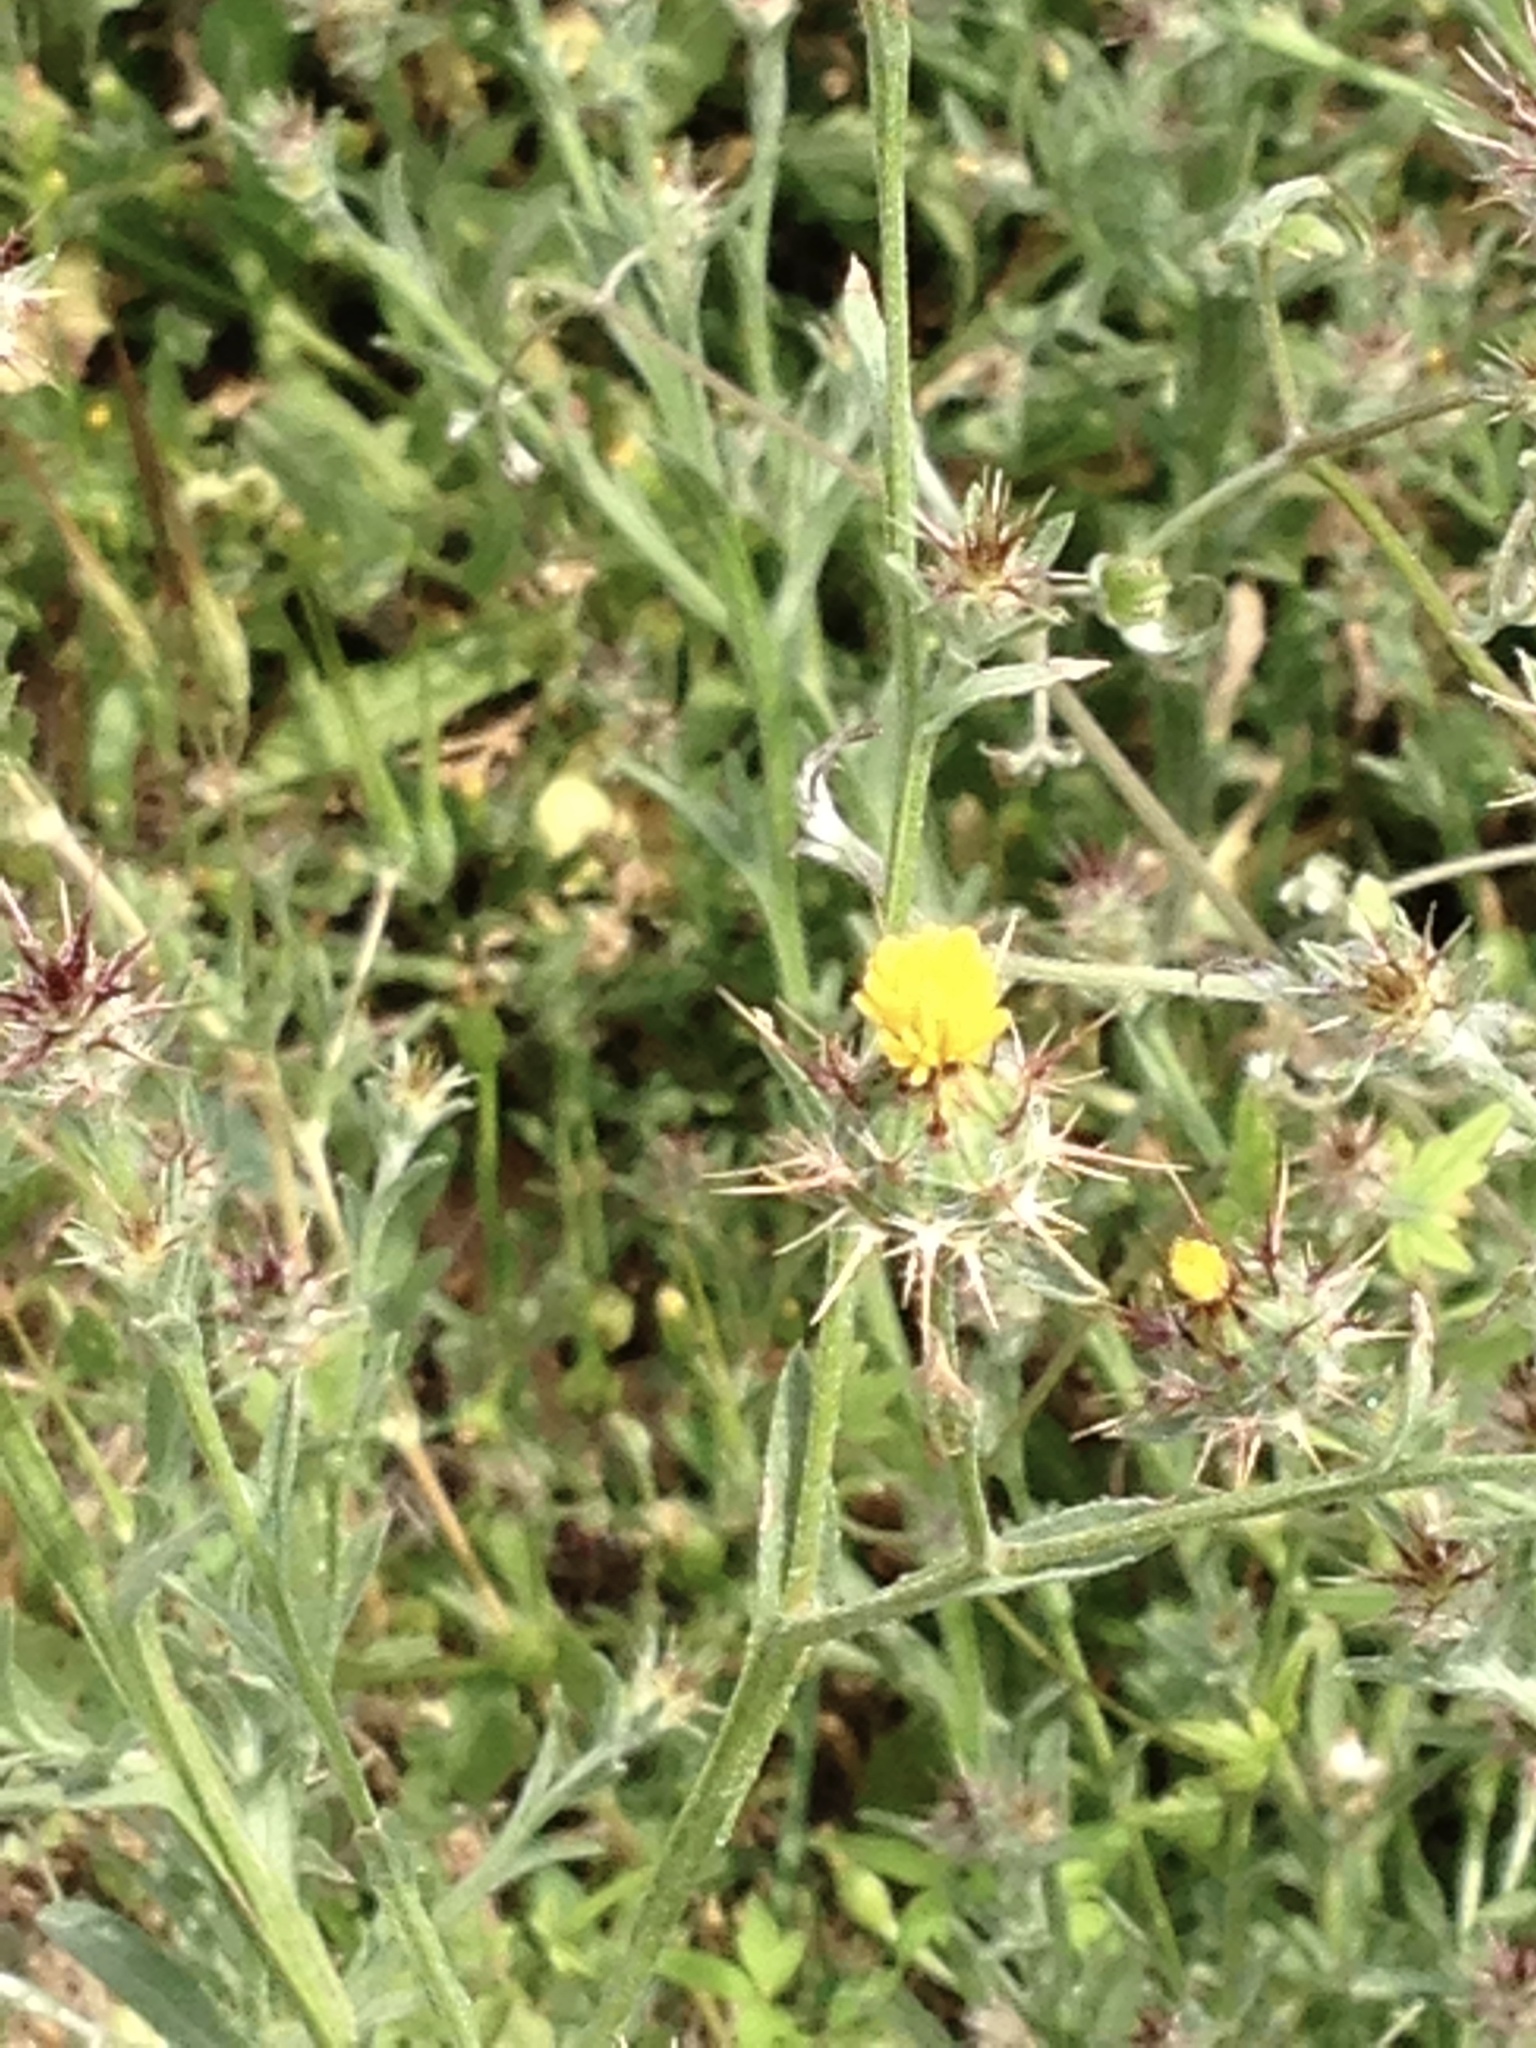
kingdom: Plantae
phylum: Tracheophyta
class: Magnoliopsida
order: Asterales
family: Asteraceae
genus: Centaurea
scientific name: Centaurea melitensis
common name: Maltese star-thistle
